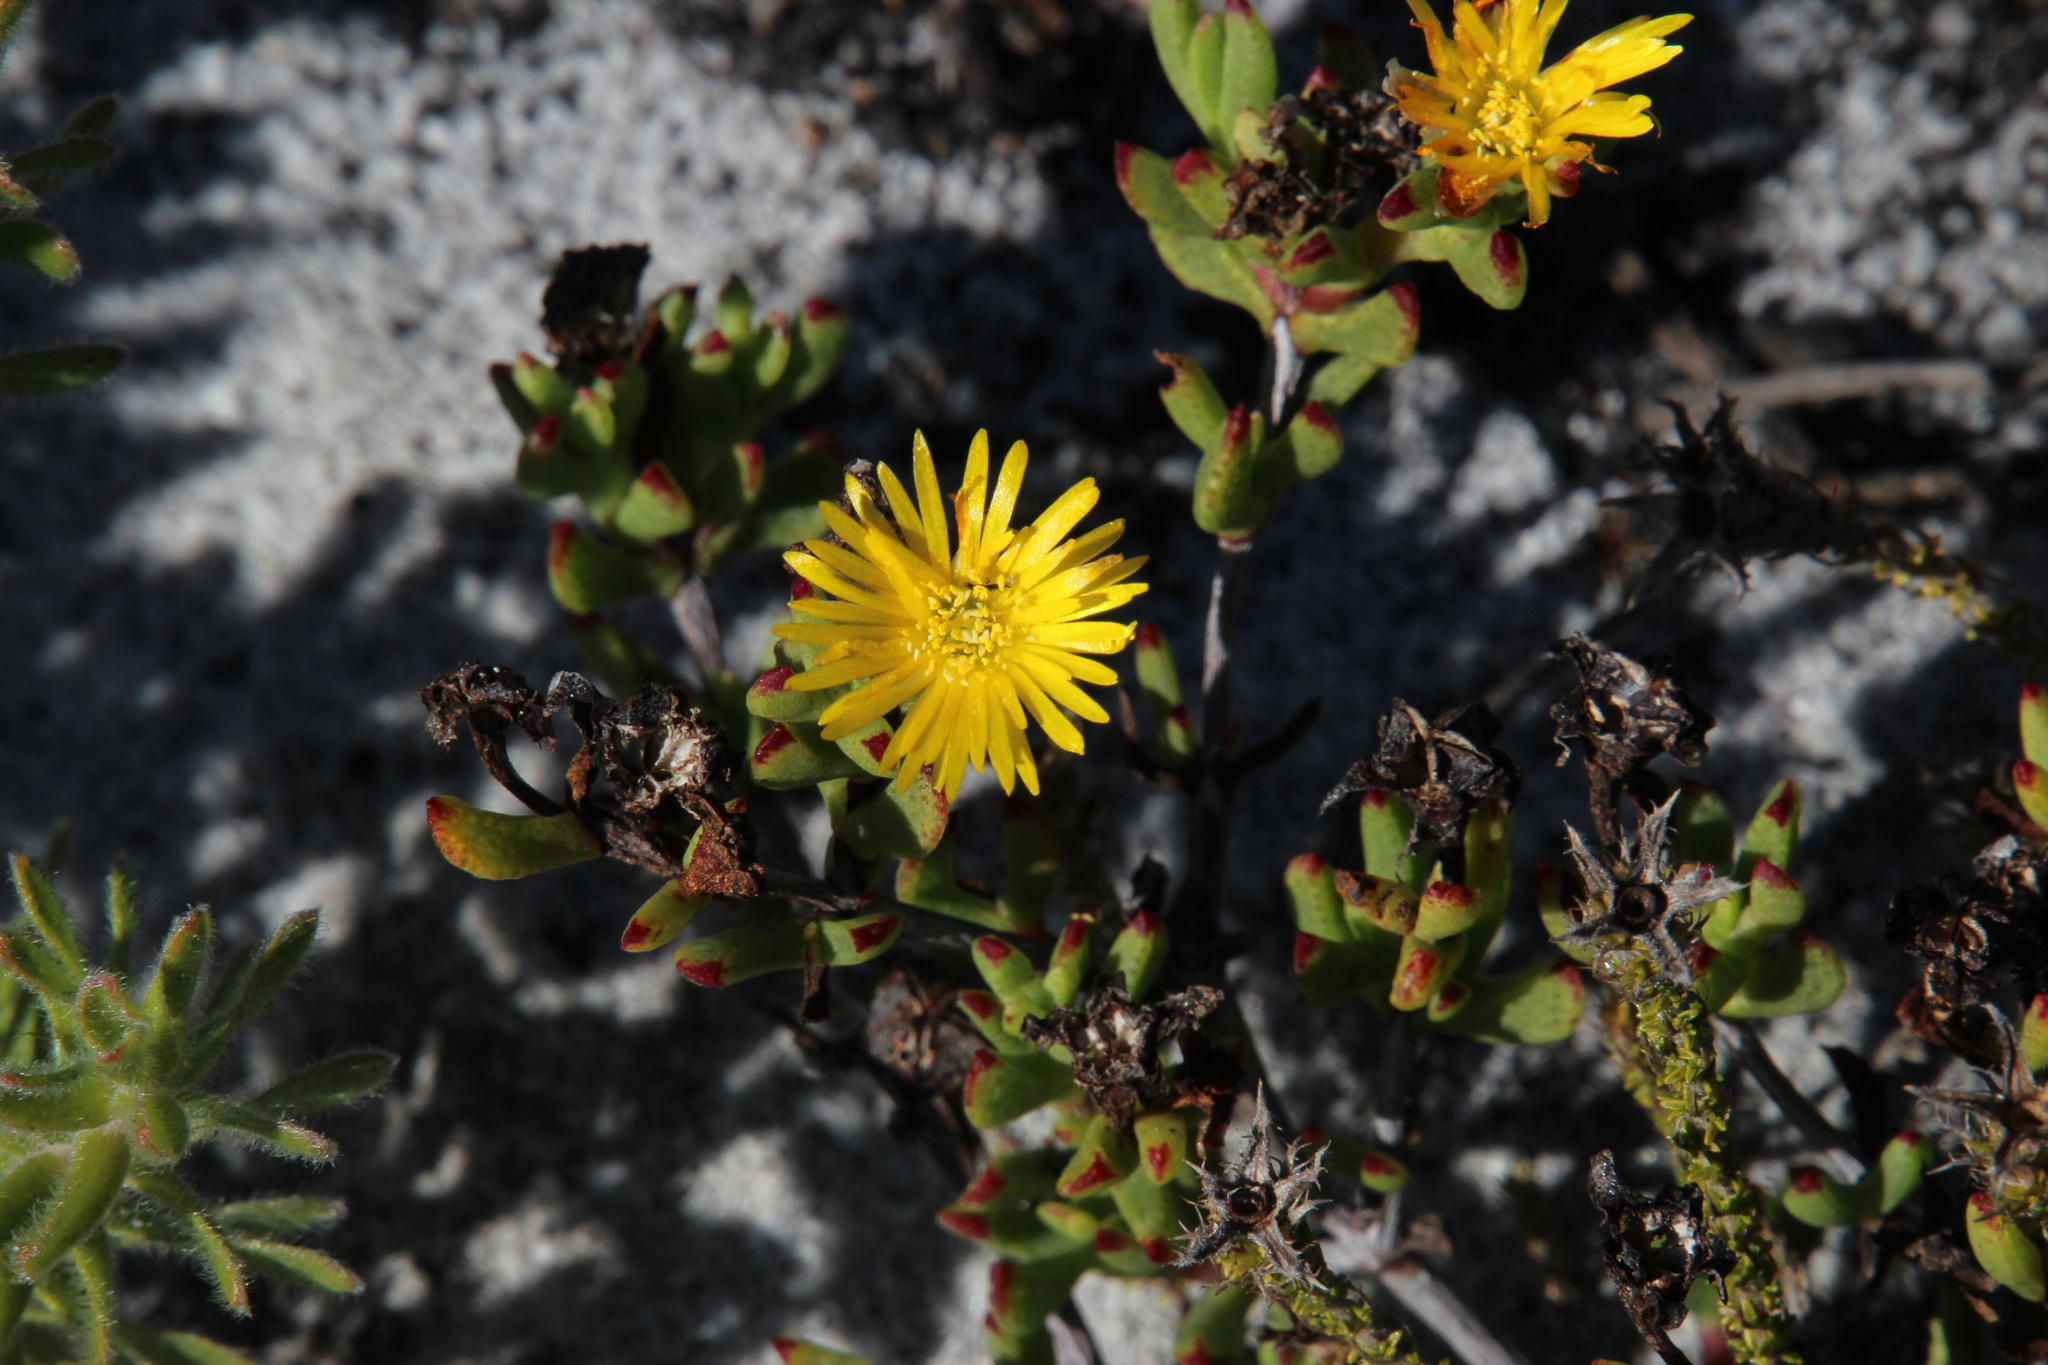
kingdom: Plantae
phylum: Tracheophyta
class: Magnoliopsida
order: Caryophyllales
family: Aizoaceae
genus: Lampranthus
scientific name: Lampranthus promontorii
